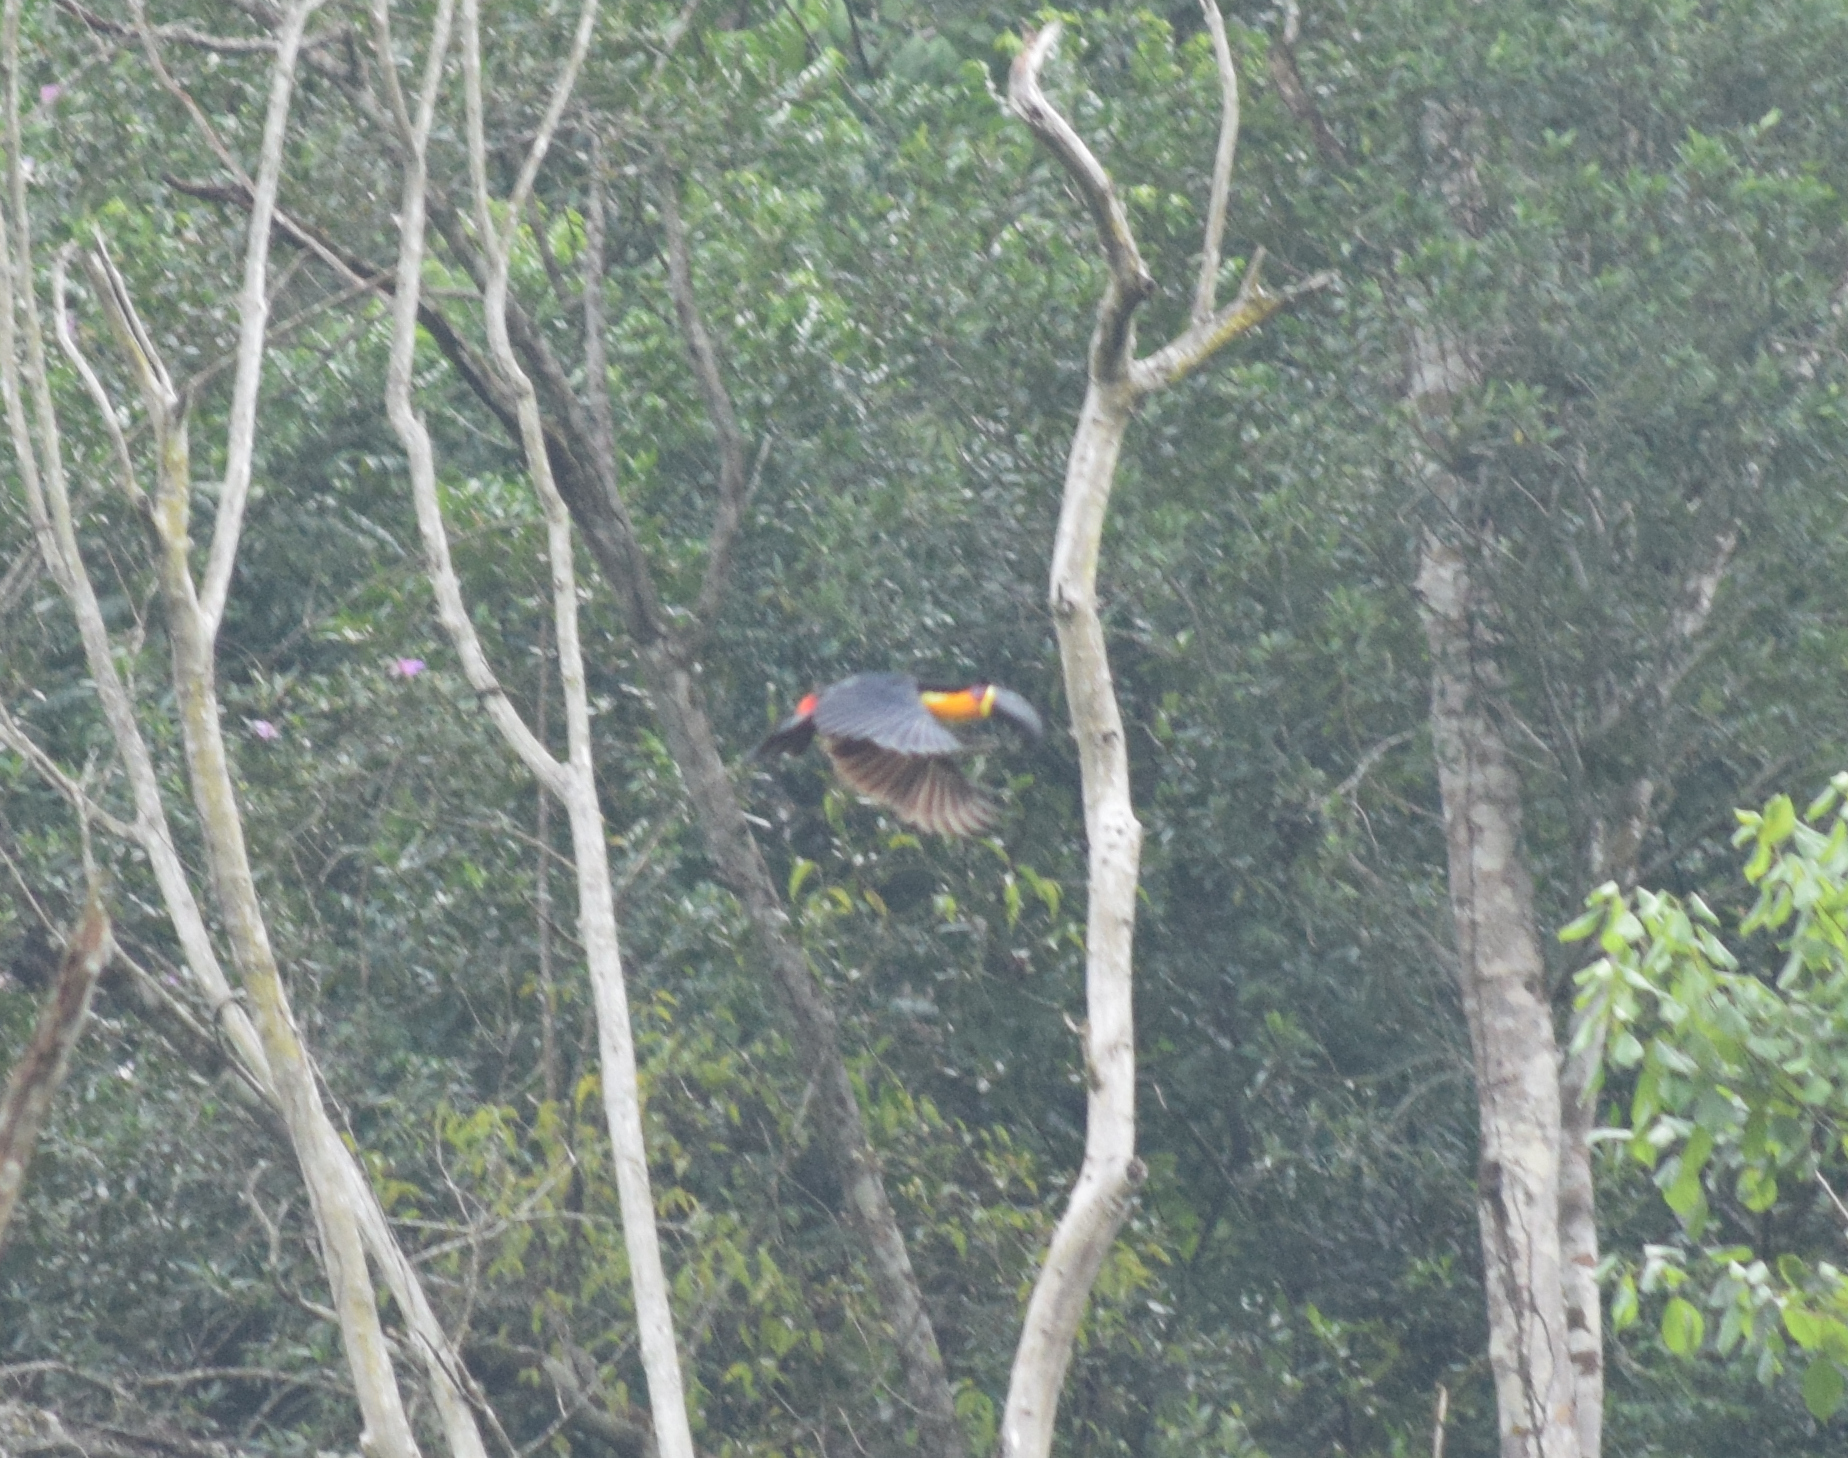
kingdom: Animalia
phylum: Chordata
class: Aves
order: Piciformes
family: Ramphastidae
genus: Ramphastos
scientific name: Ramphastos vitellinus
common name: Channel-billed toucan
